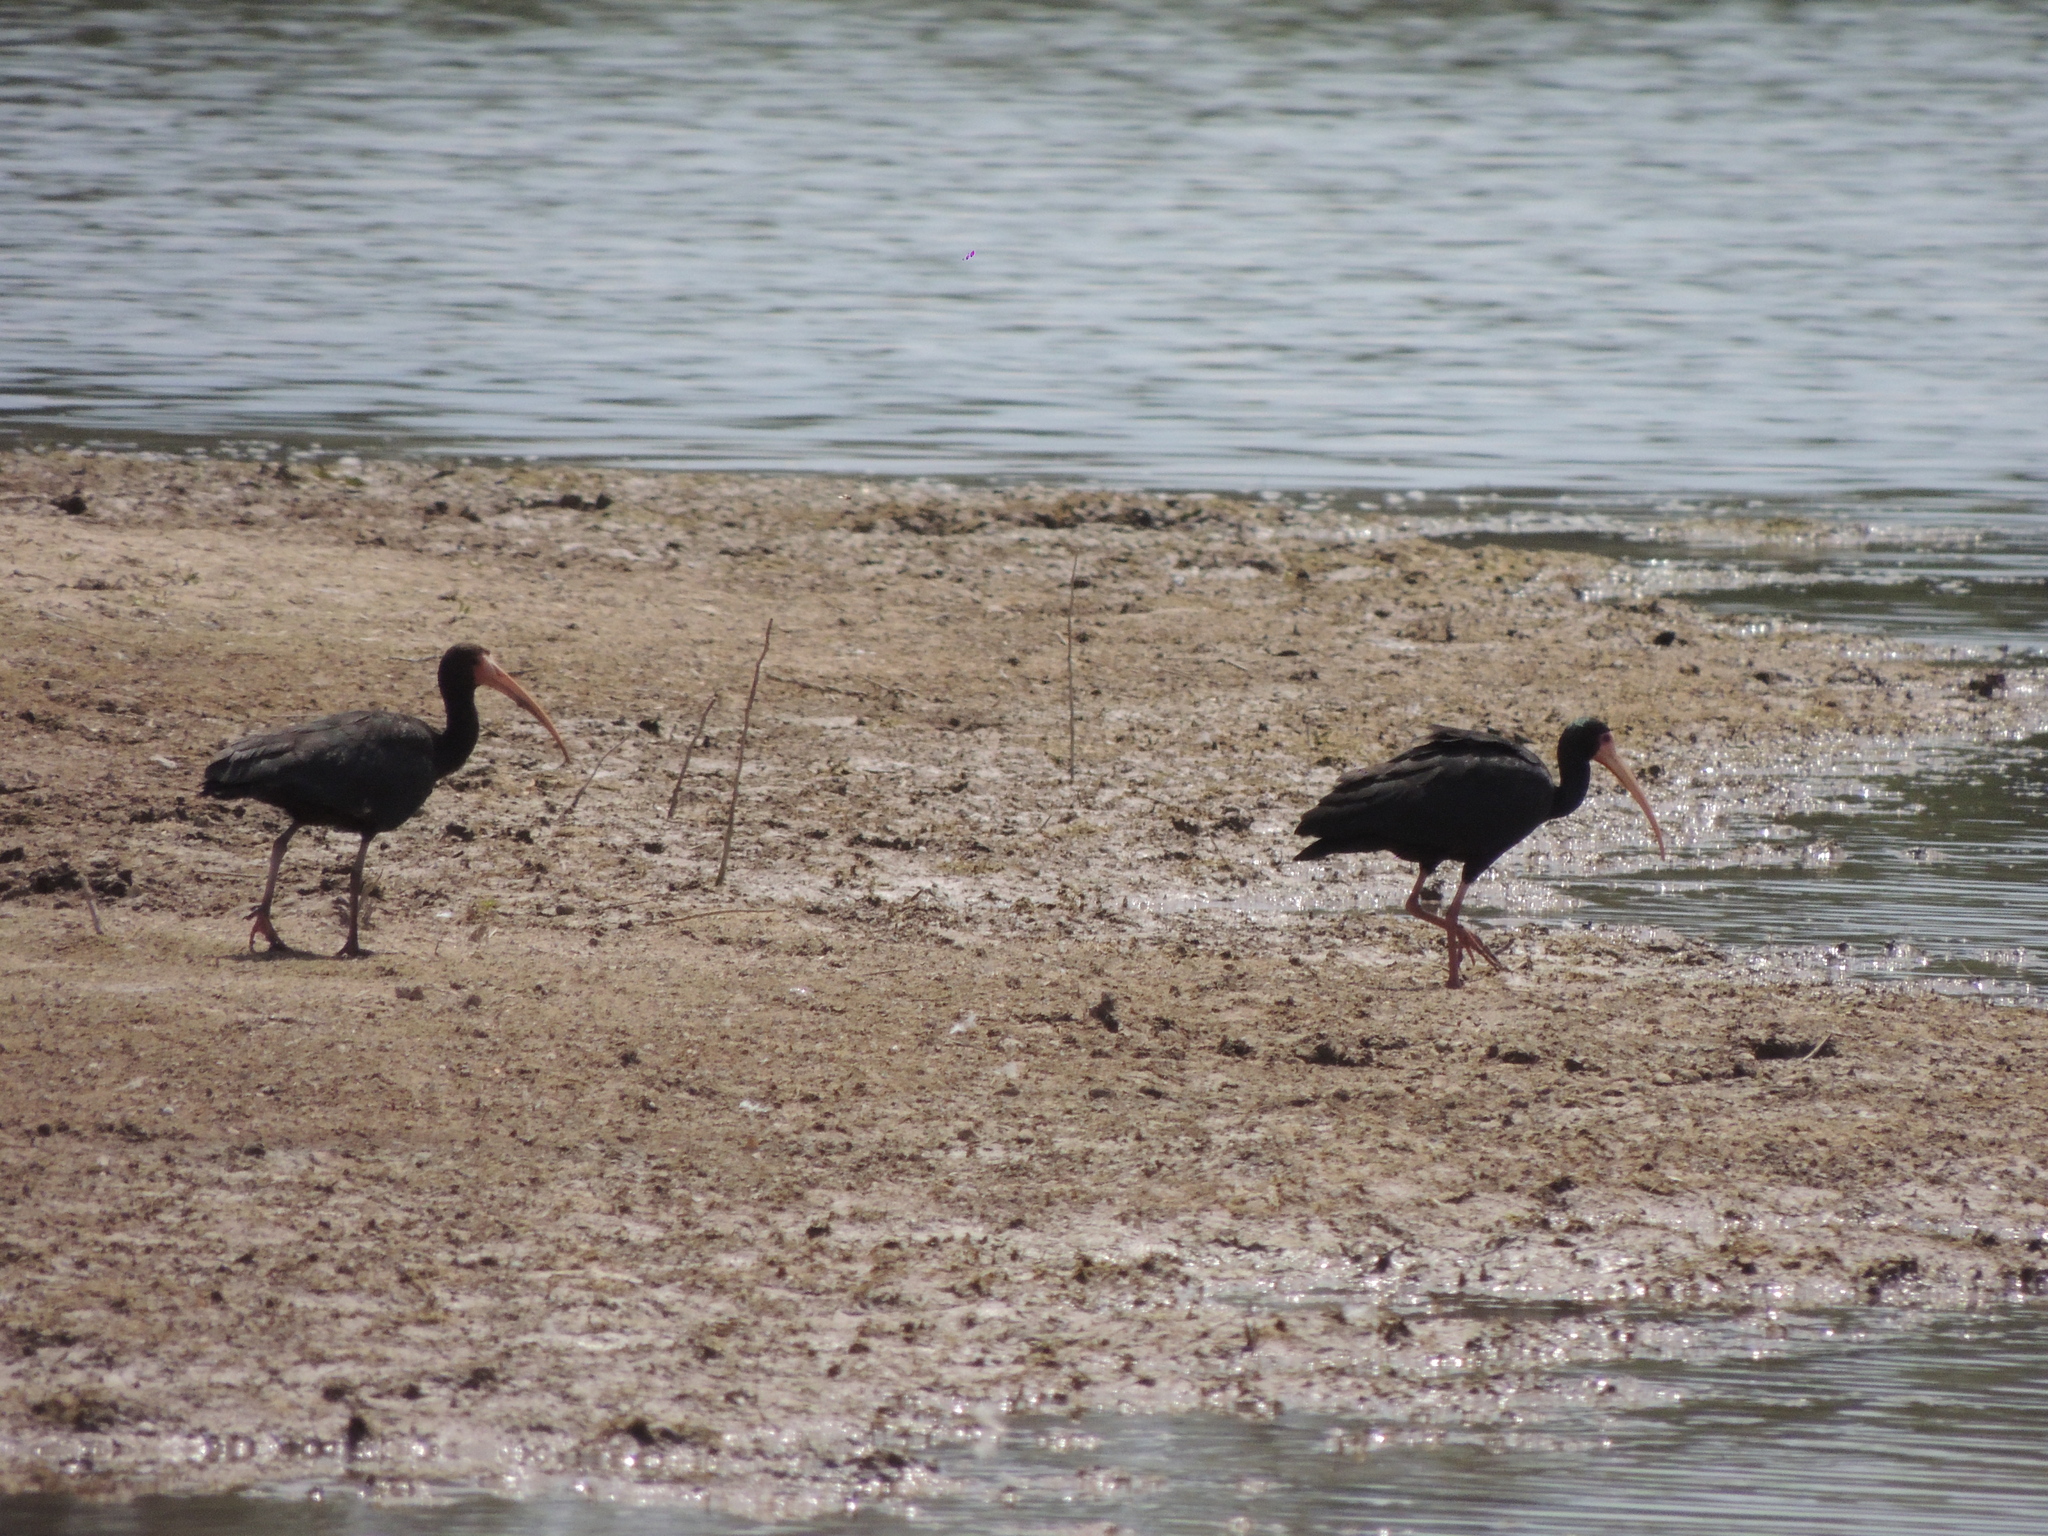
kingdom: Animalia
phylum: Chordata
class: Aves
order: Pelecaniformes
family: Threskiornithidae
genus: Phimosus
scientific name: Phimosus infuscatus
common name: Bare-faced ibis
